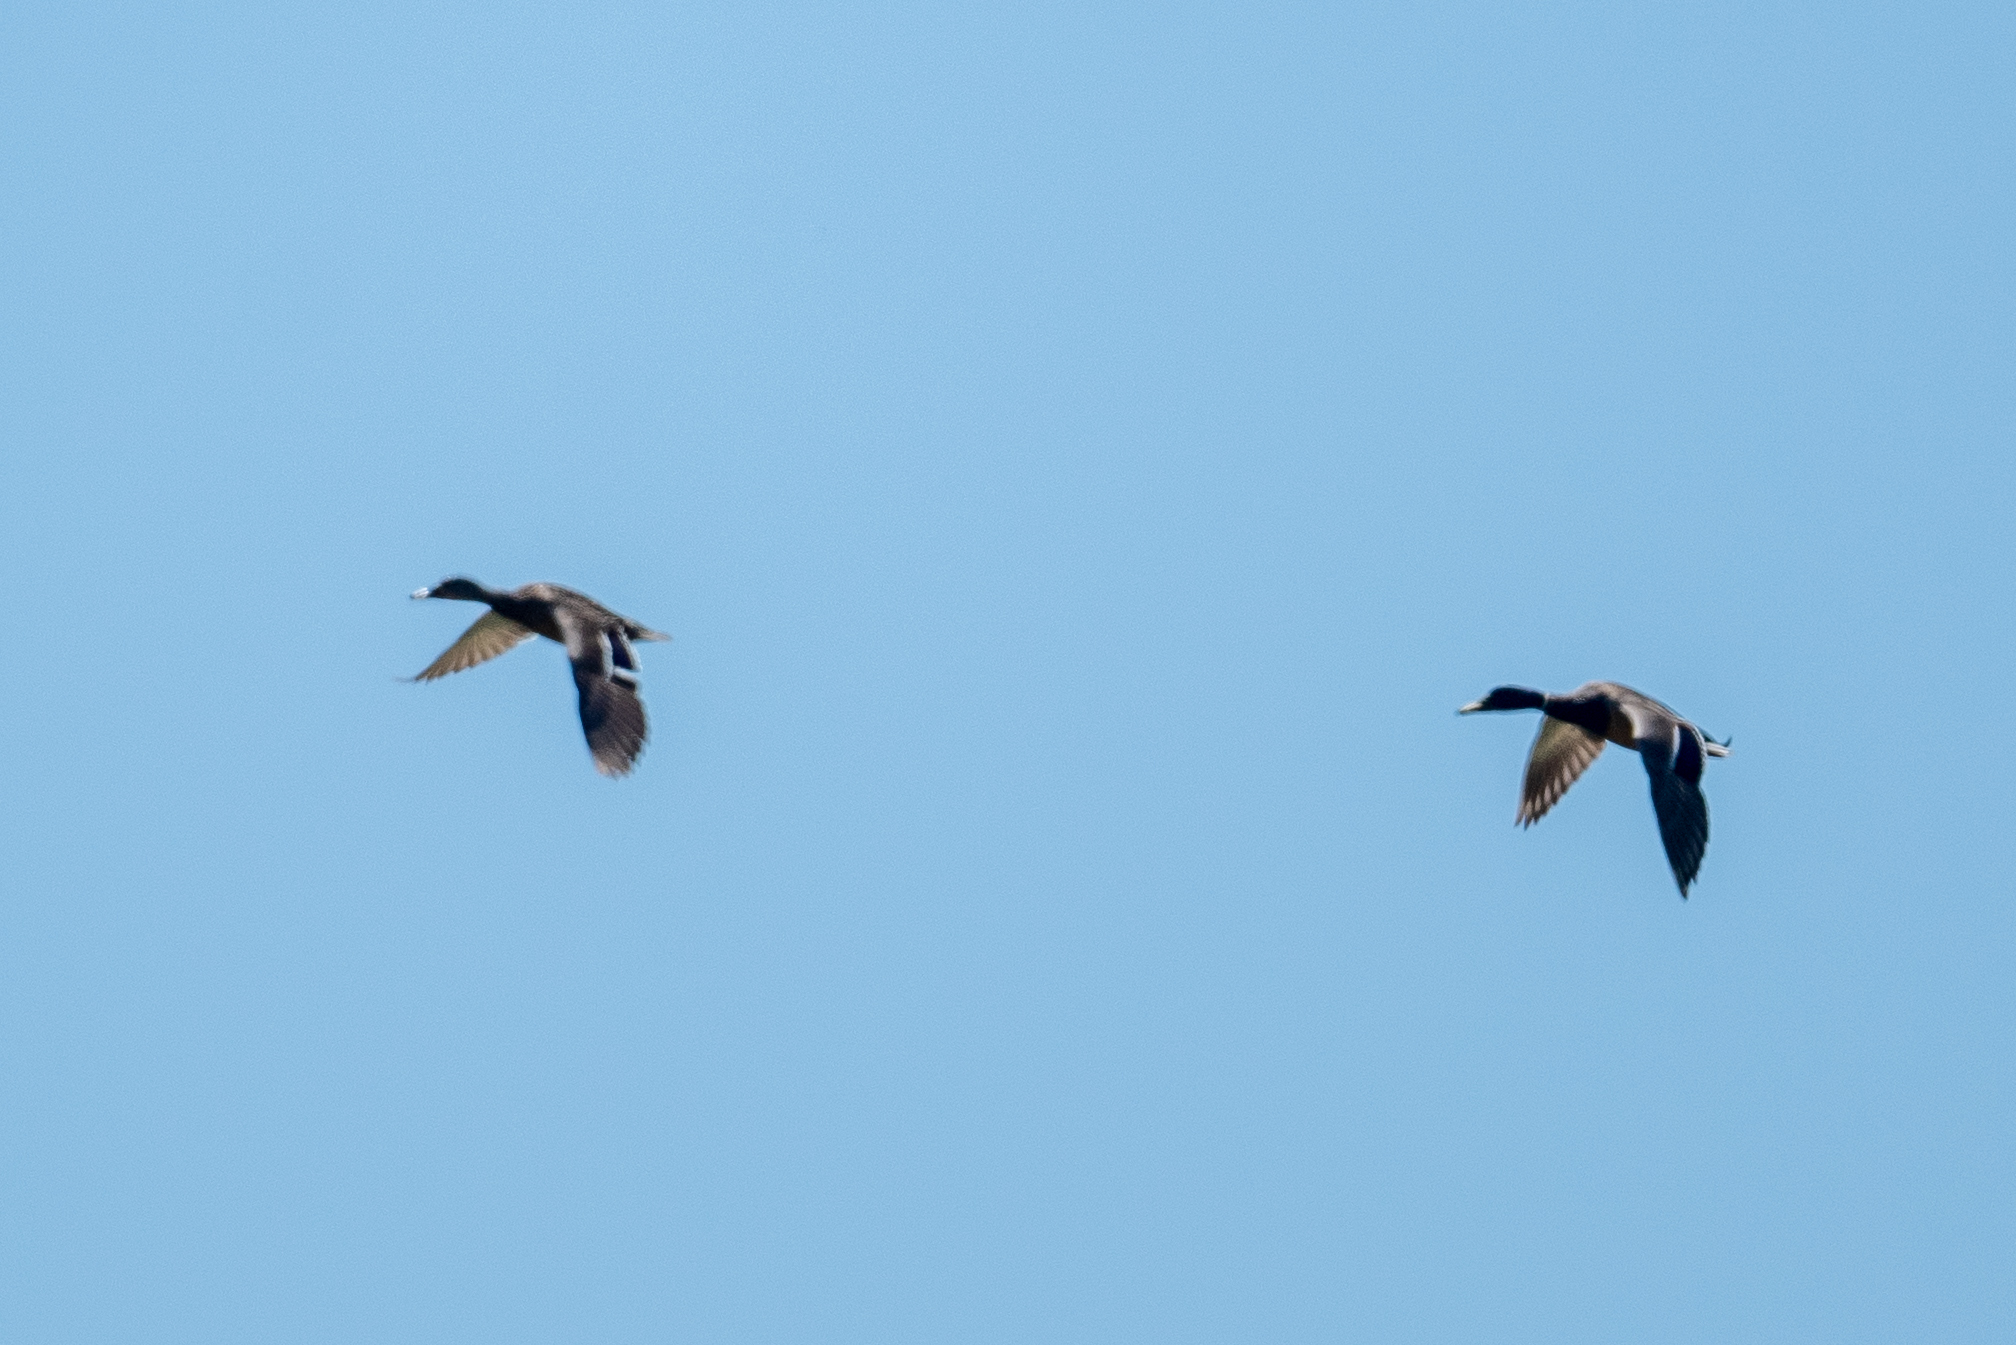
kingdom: Animalia
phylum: Chordata
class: Aves
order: Anseriformes
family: Anatidae
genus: Anas
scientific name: Anas platyrhynchos
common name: Mallard
